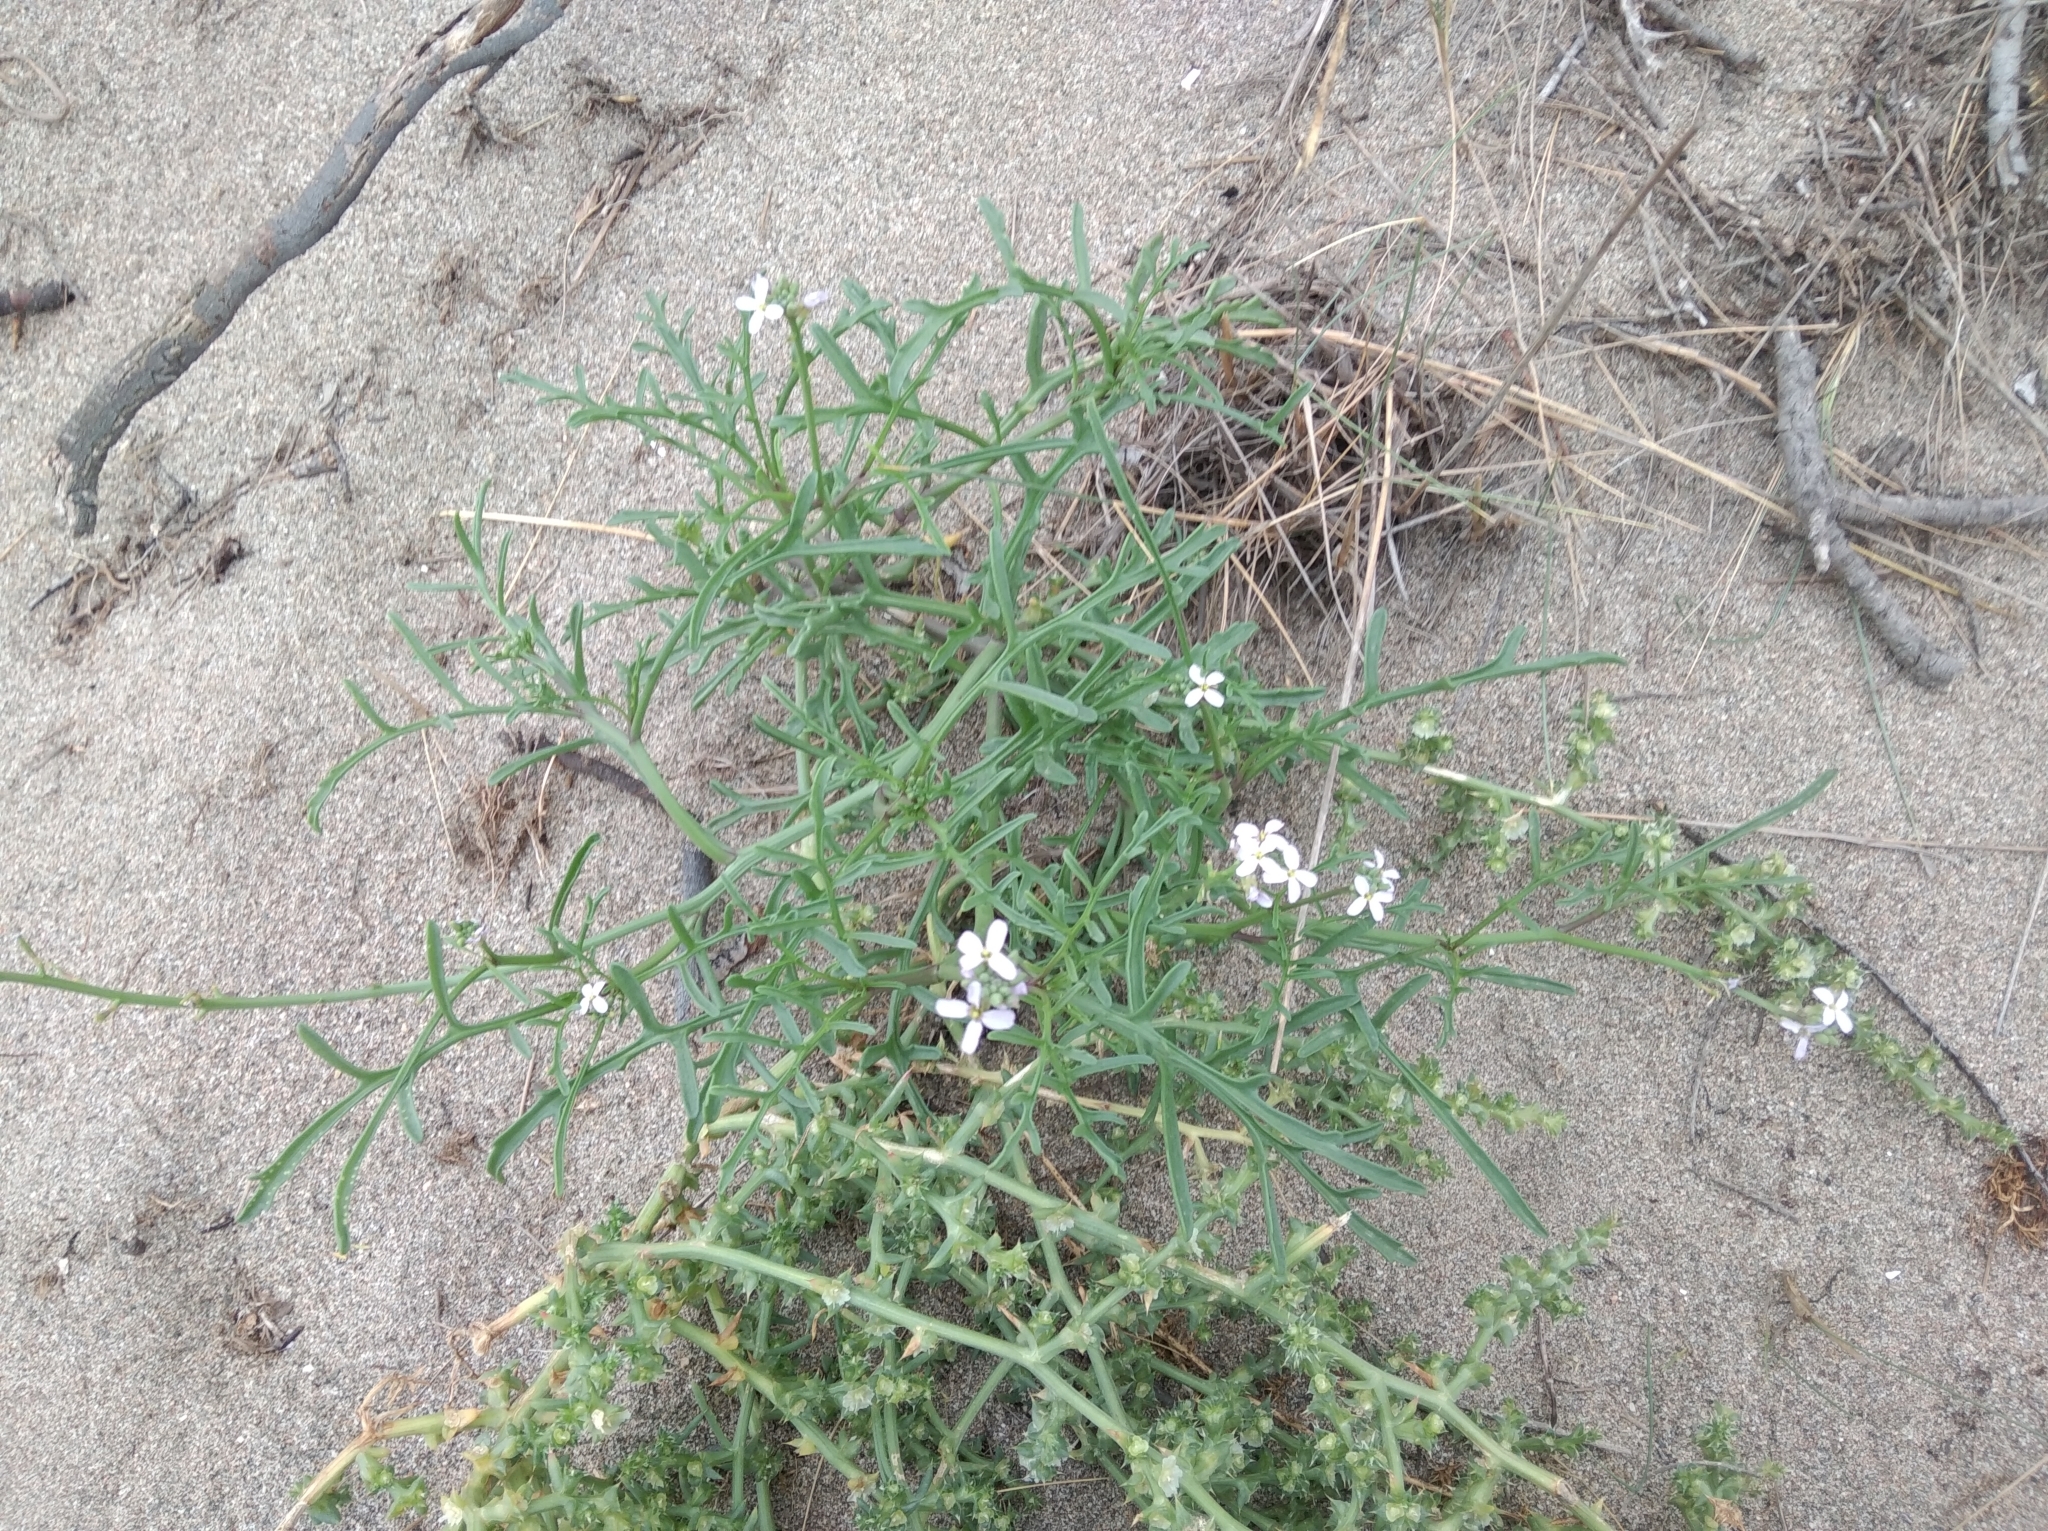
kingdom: Plantae
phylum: Tracheophyta
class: Magnoliopsida
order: Brassicales
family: Brassicaceae
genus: Cakile
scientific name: Cakile maritima
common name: Sea rocket
